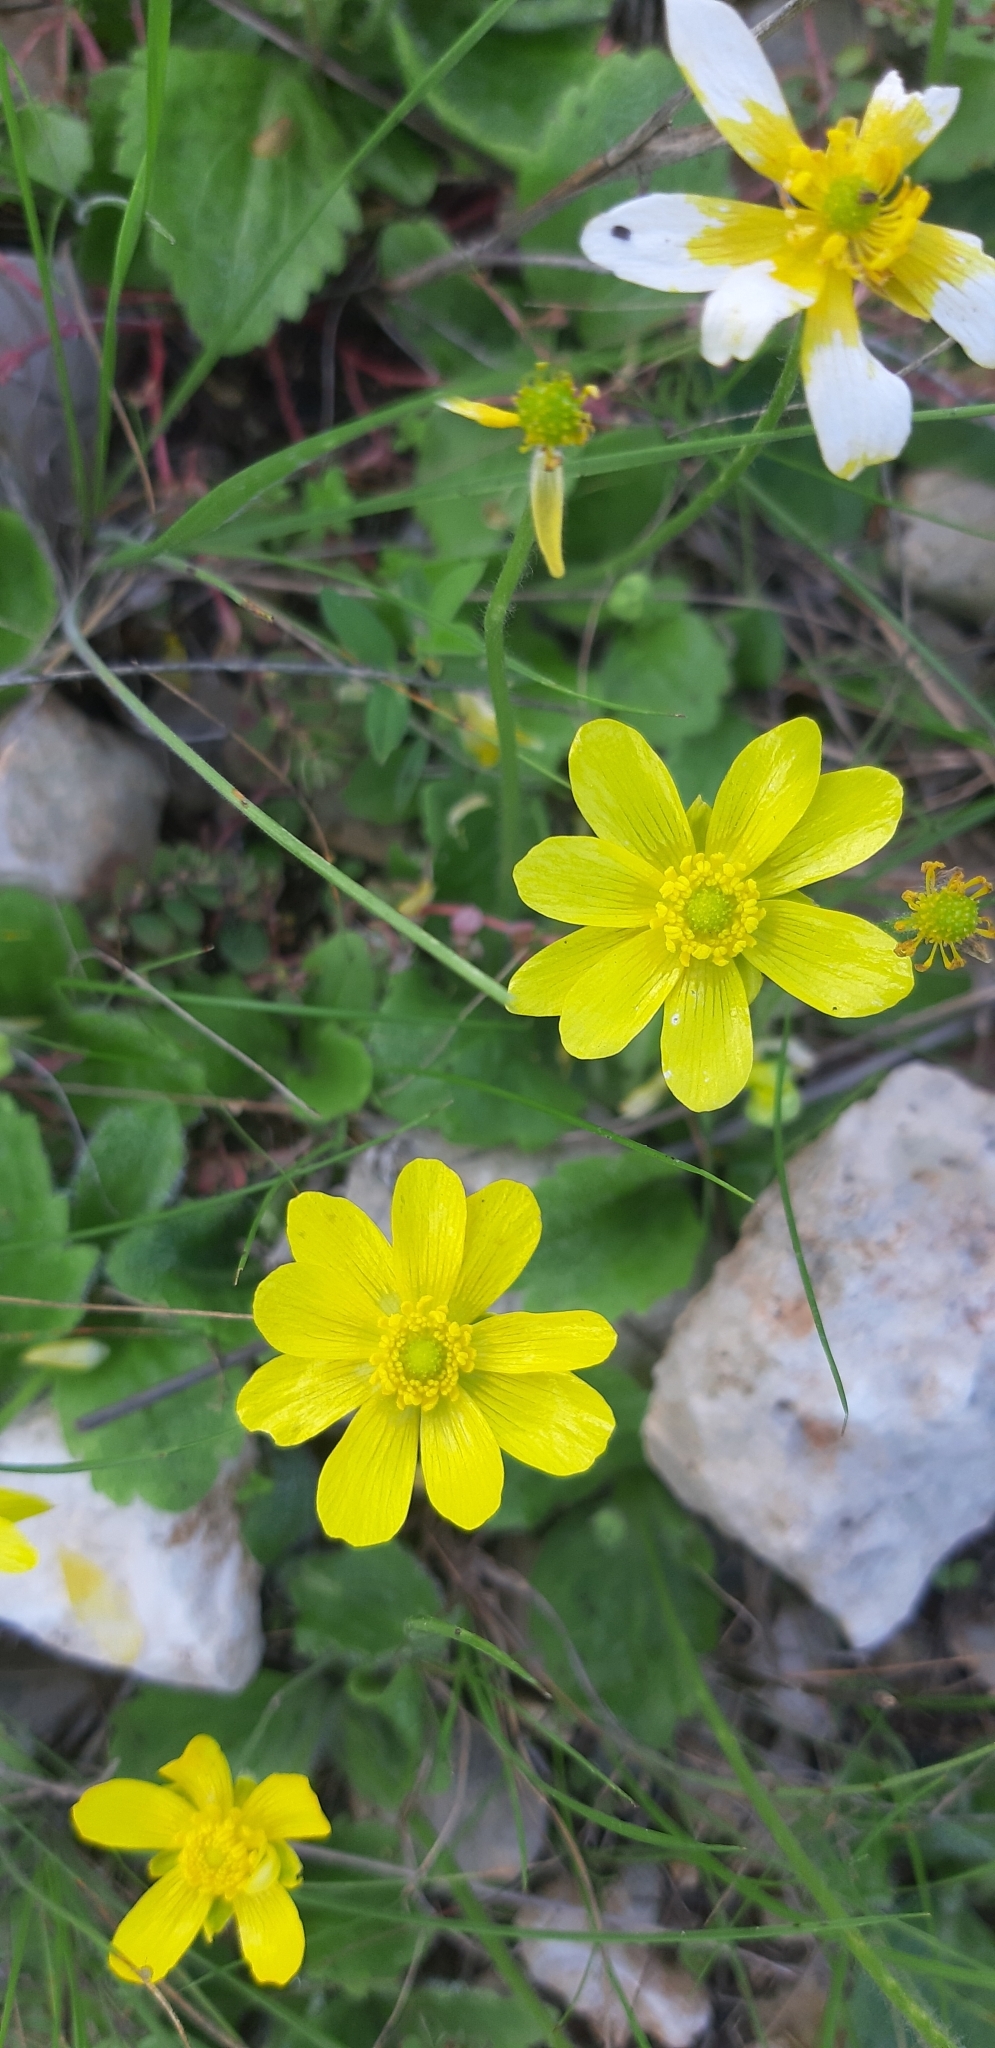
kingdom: Plantae
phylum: Tracheophyta
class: Magnoliopsida
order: Ranunculales
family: Ranunculaceae
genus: Ranunculus
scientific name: Ranunculus bullatus
